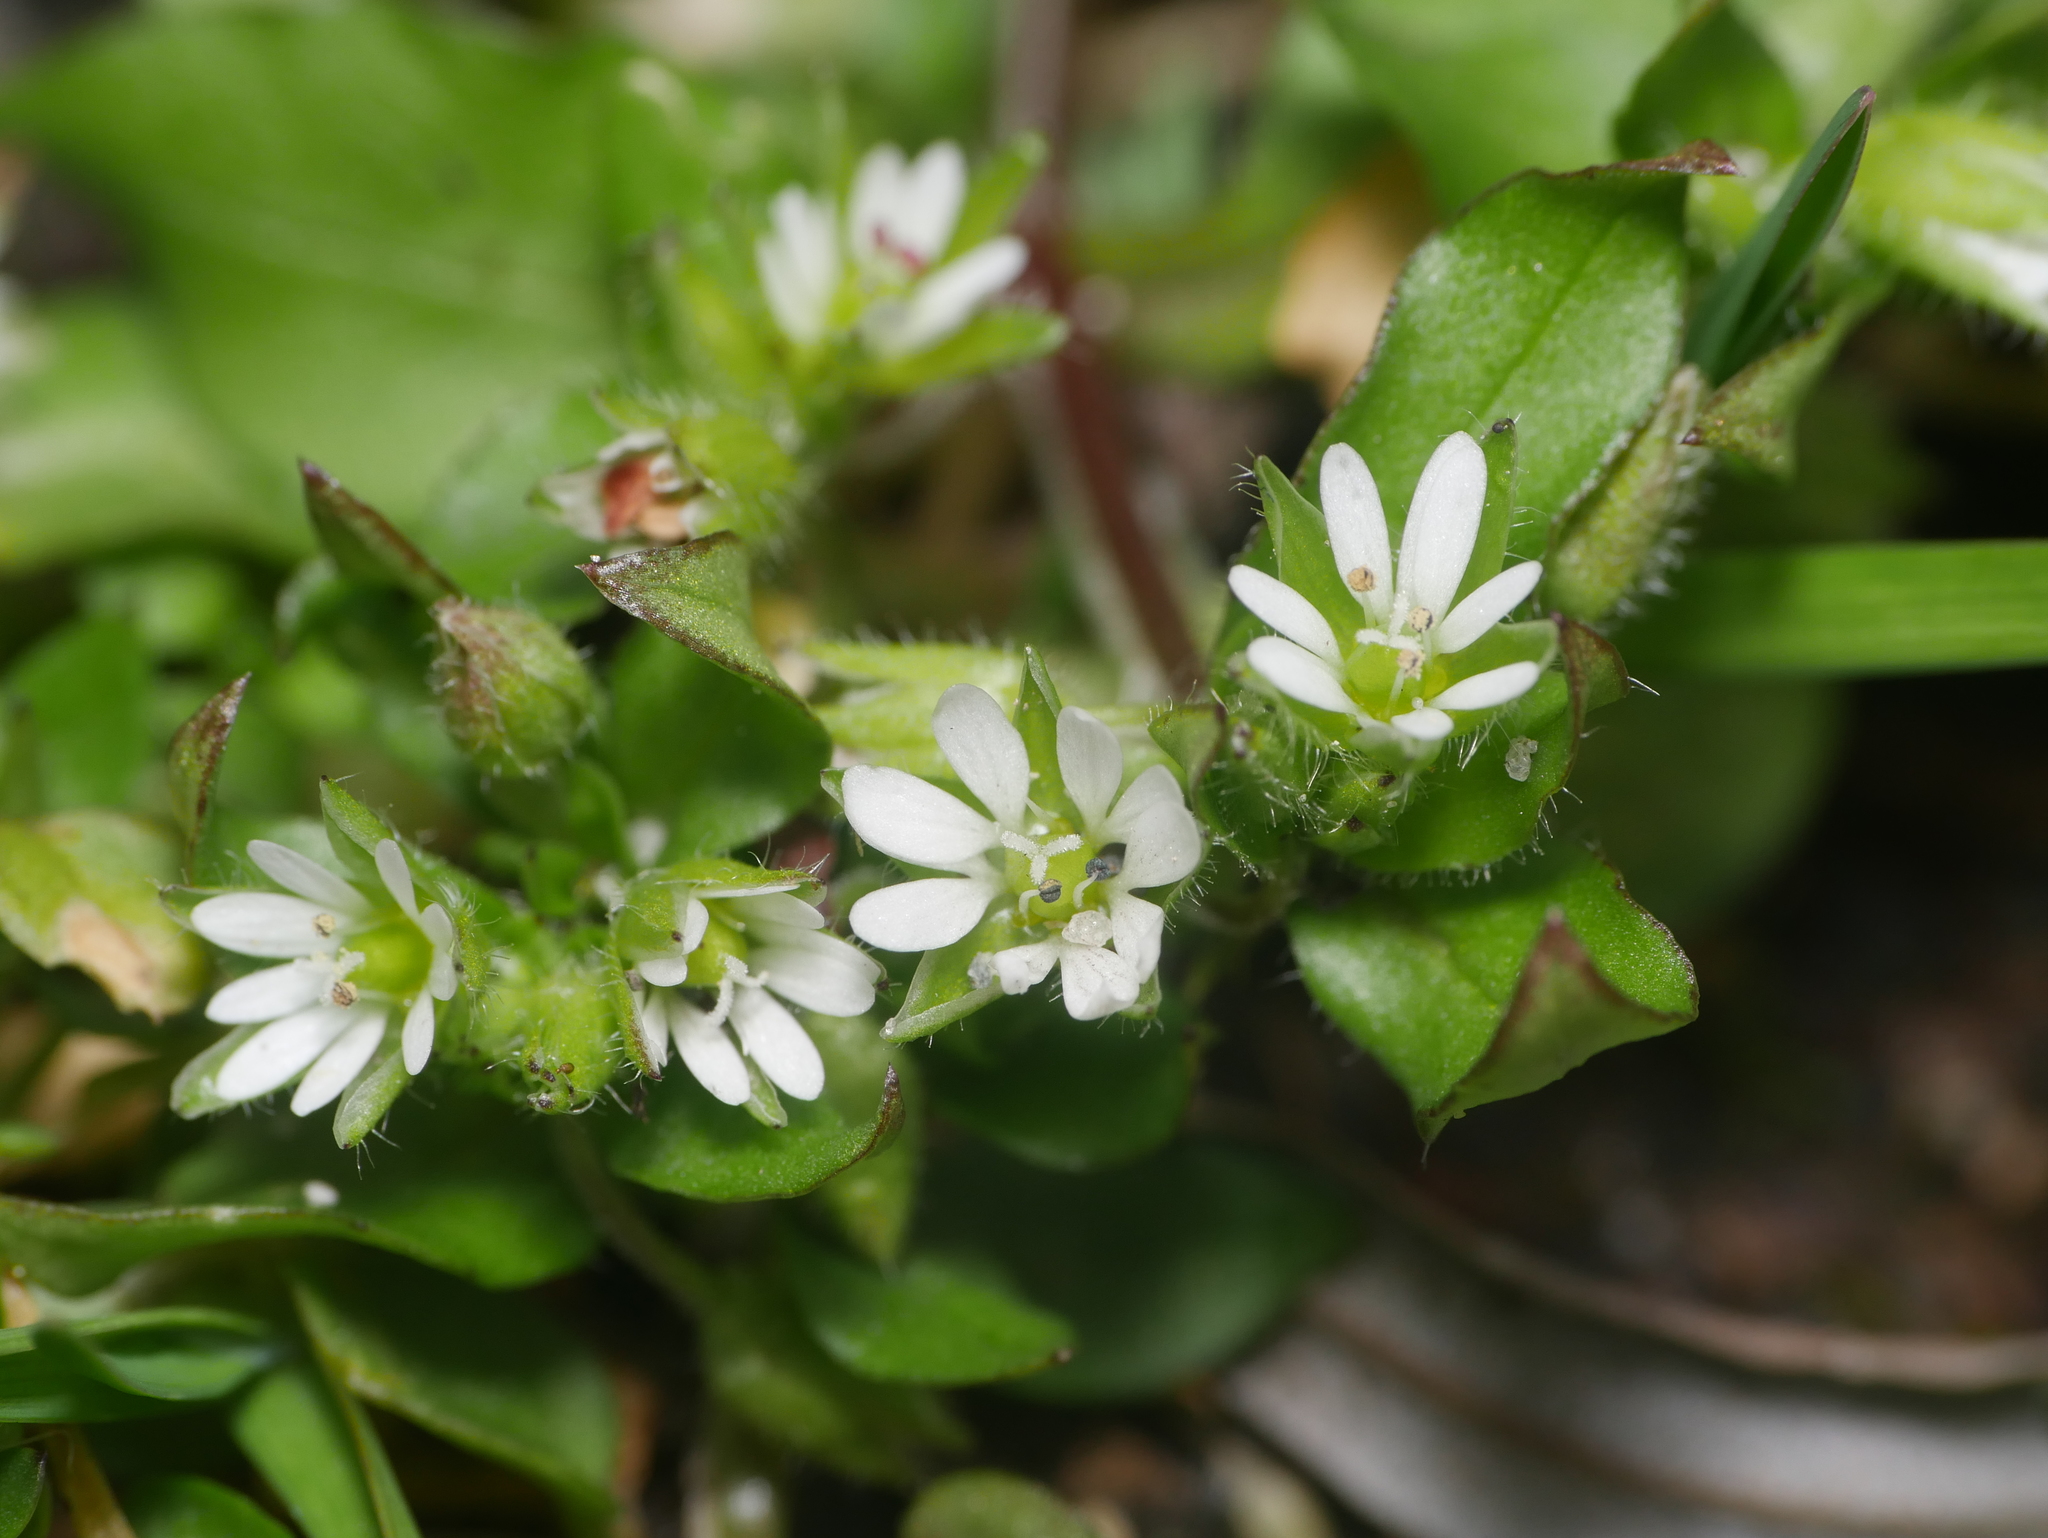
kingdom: Plantae
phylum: Tracheophyta
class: Magnoliopsida
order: Caryophyllales
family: Caryophyllaceae
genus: Stellaria
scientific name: Stellaria media
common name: Common chickweed
